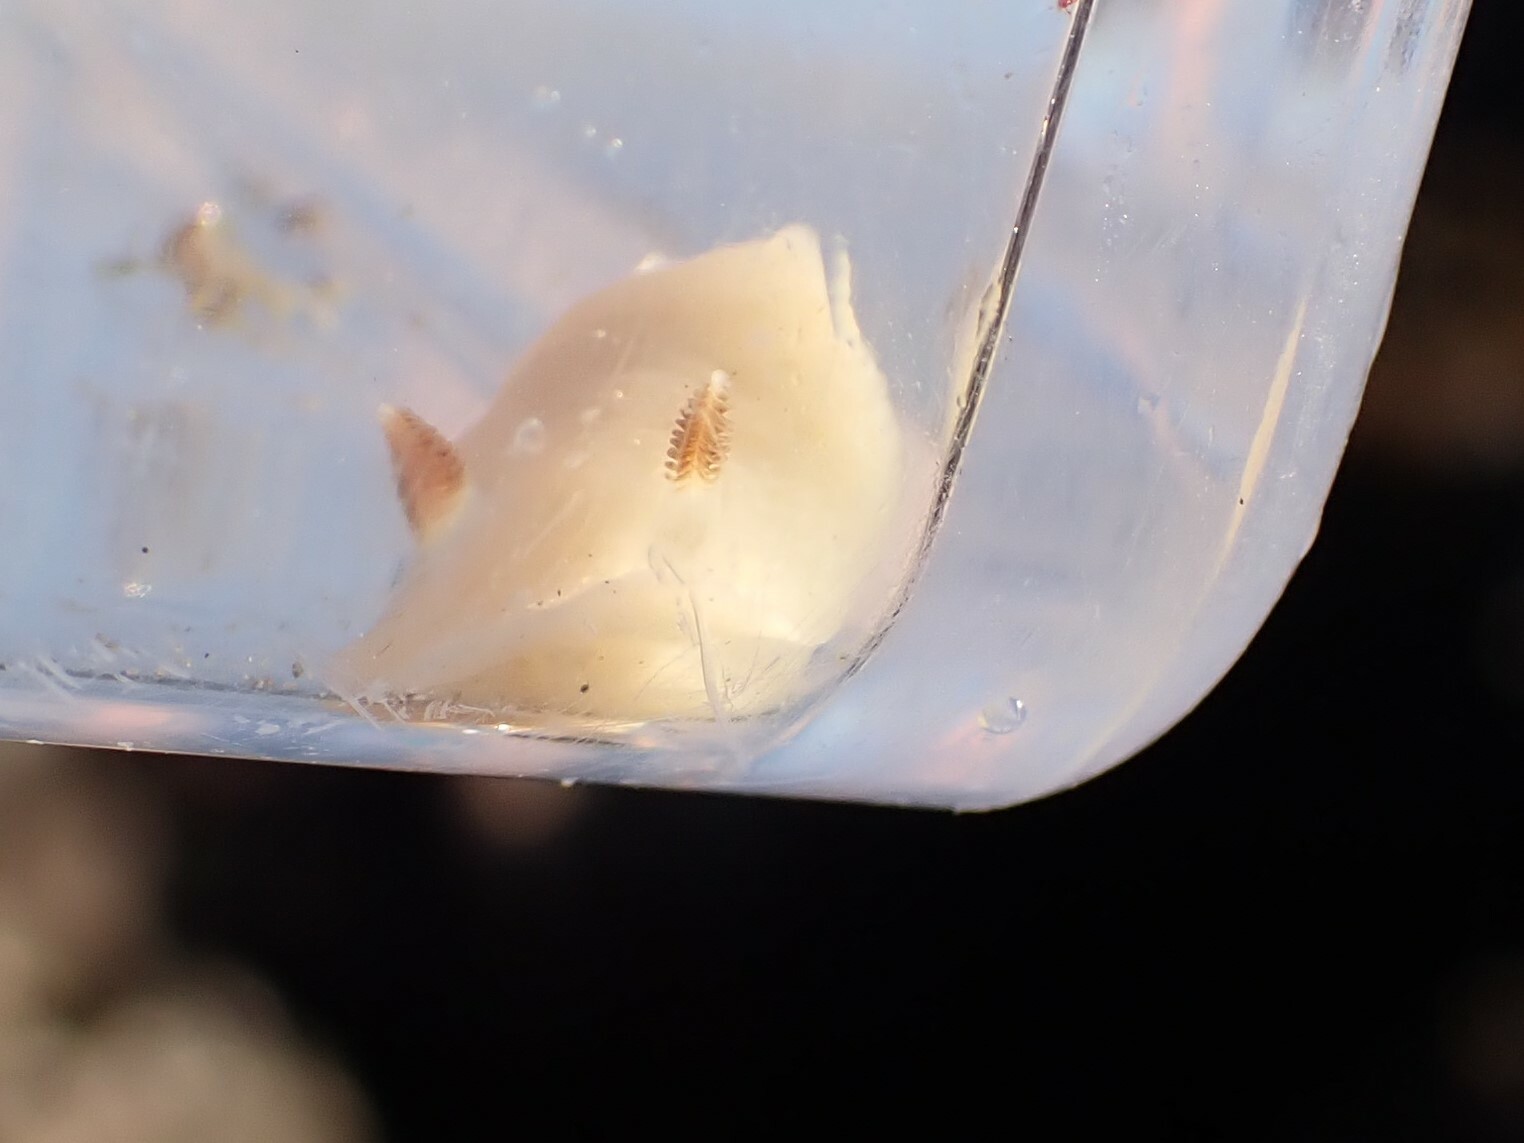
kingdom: Animalia
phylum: Mollusca
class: Gastropoda
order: Nudibranchia
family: Cadlinidae
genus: Cadlina
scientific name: Cadlina flavomaculata
